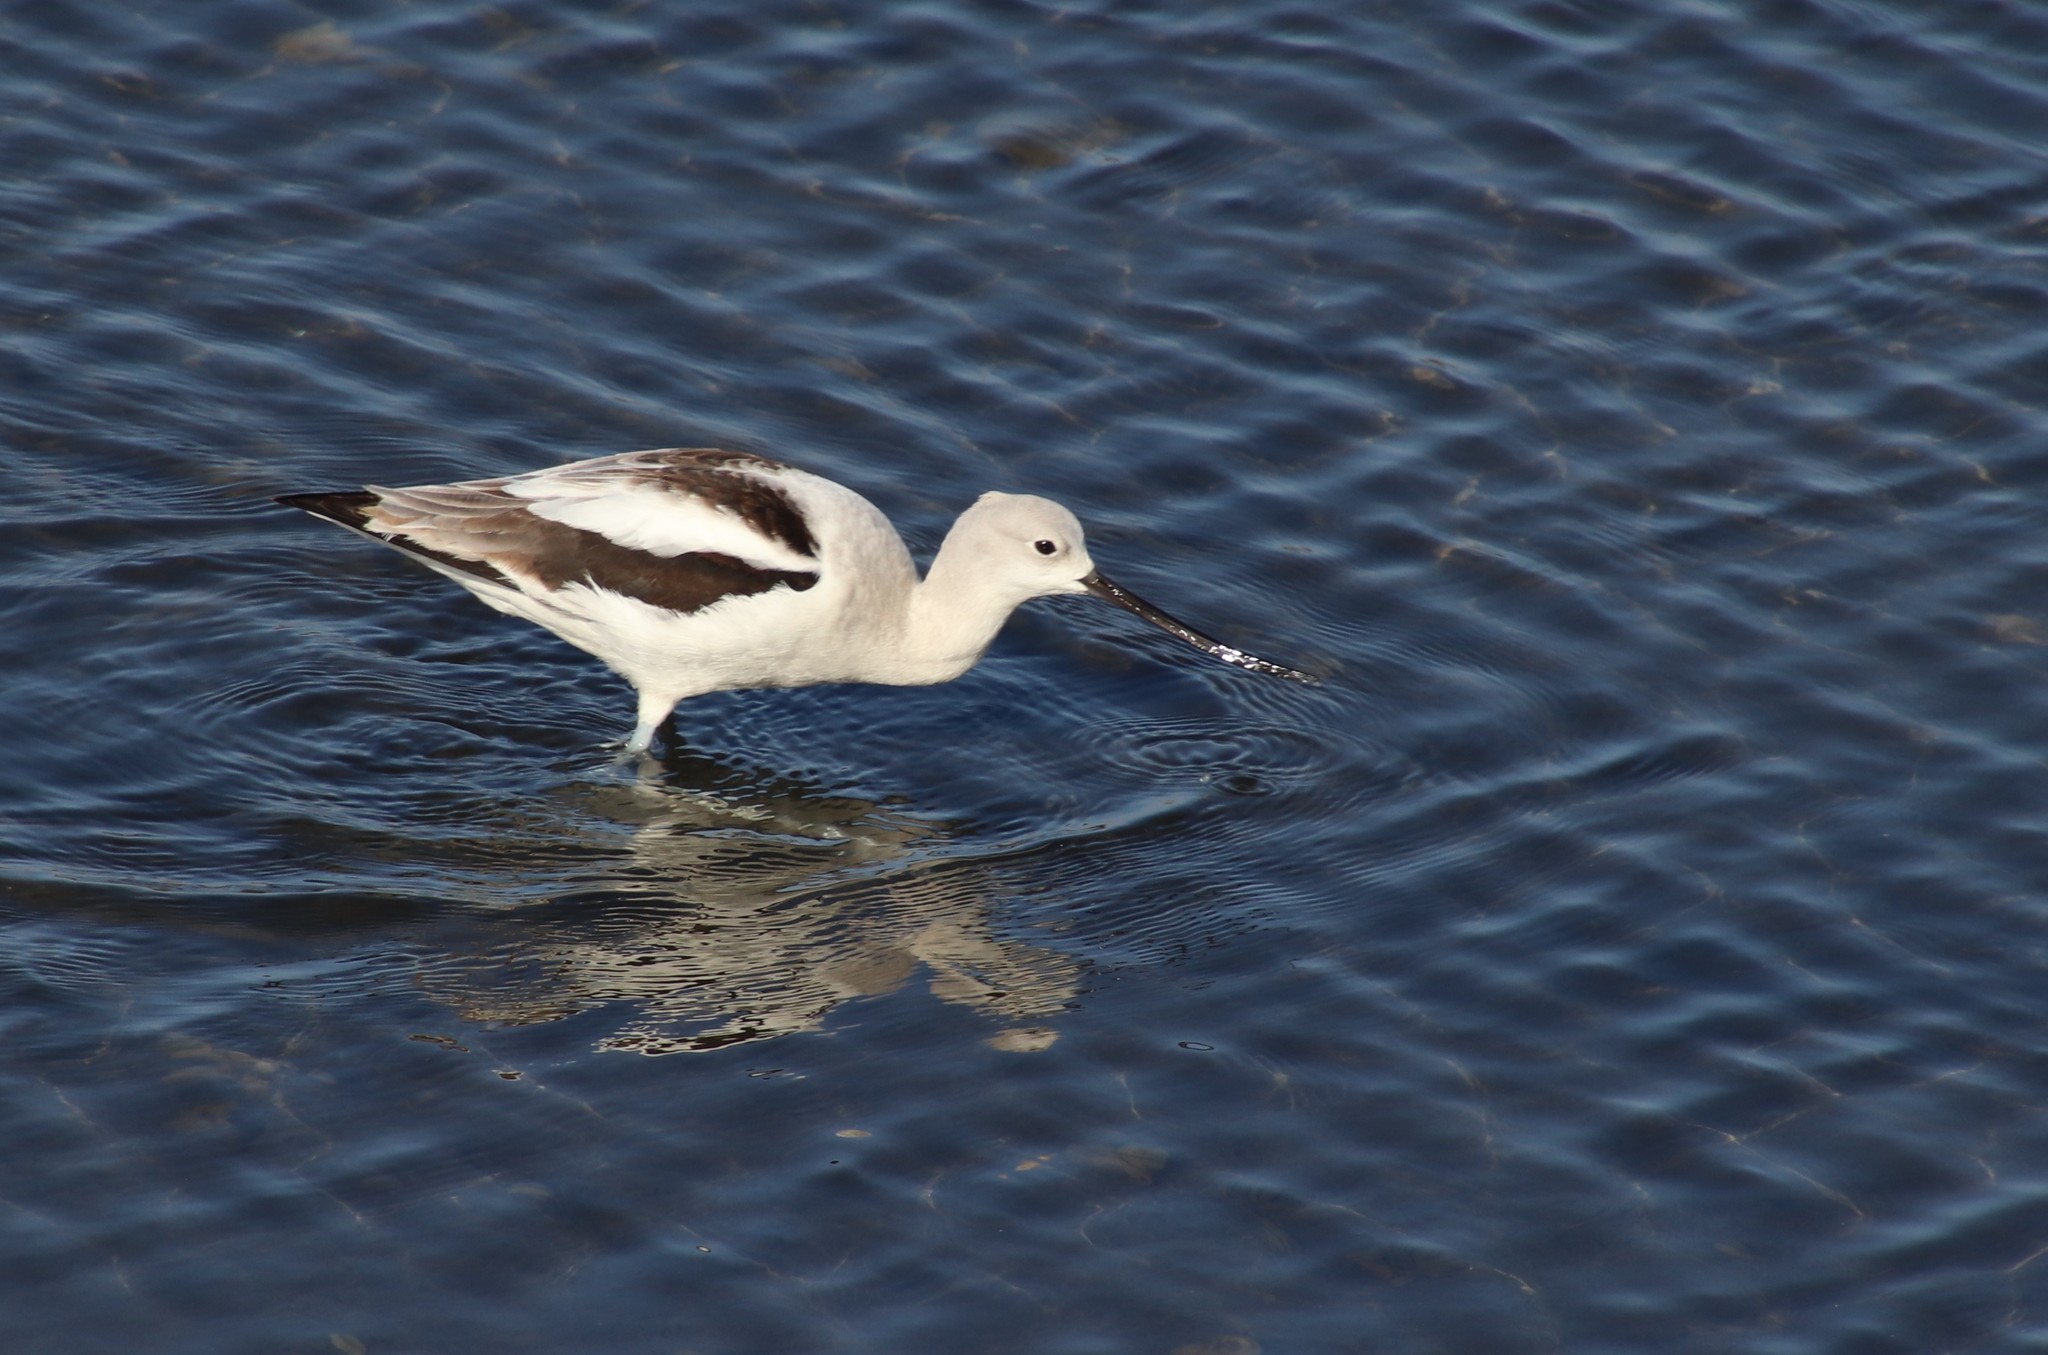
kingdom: Animalia
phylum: Chordata
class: Aves
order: Charadriiformes
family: Recurvirostridae
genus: Recurvirostra
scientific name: Recurvirostra americana
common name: American avocet
